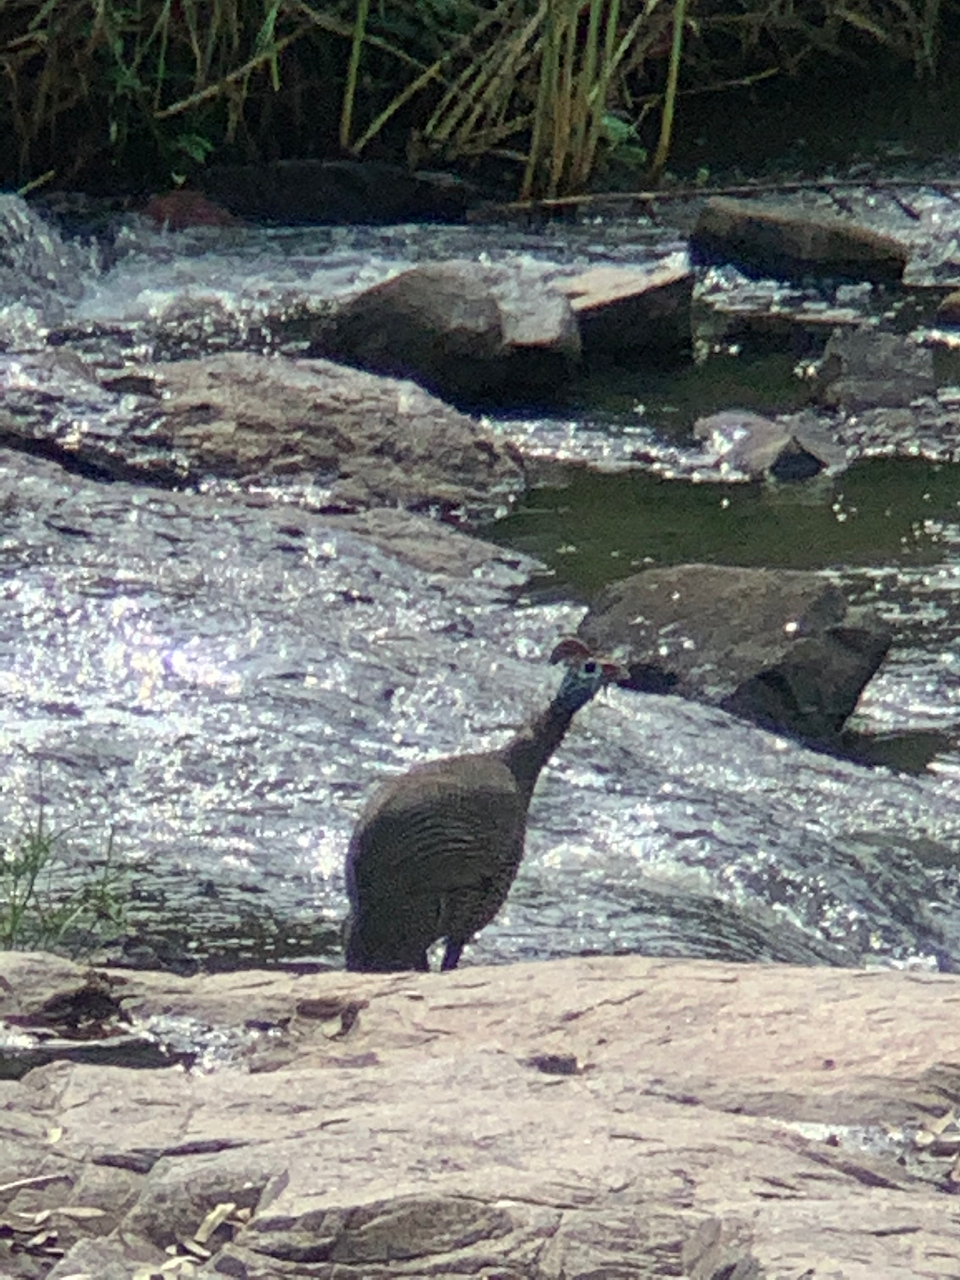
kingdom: Animalia
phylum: Chordata
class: Aves
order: Galliformes
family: Numididae
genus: Numida
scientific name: Numida meleagris
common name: Helmeted guineafowl
